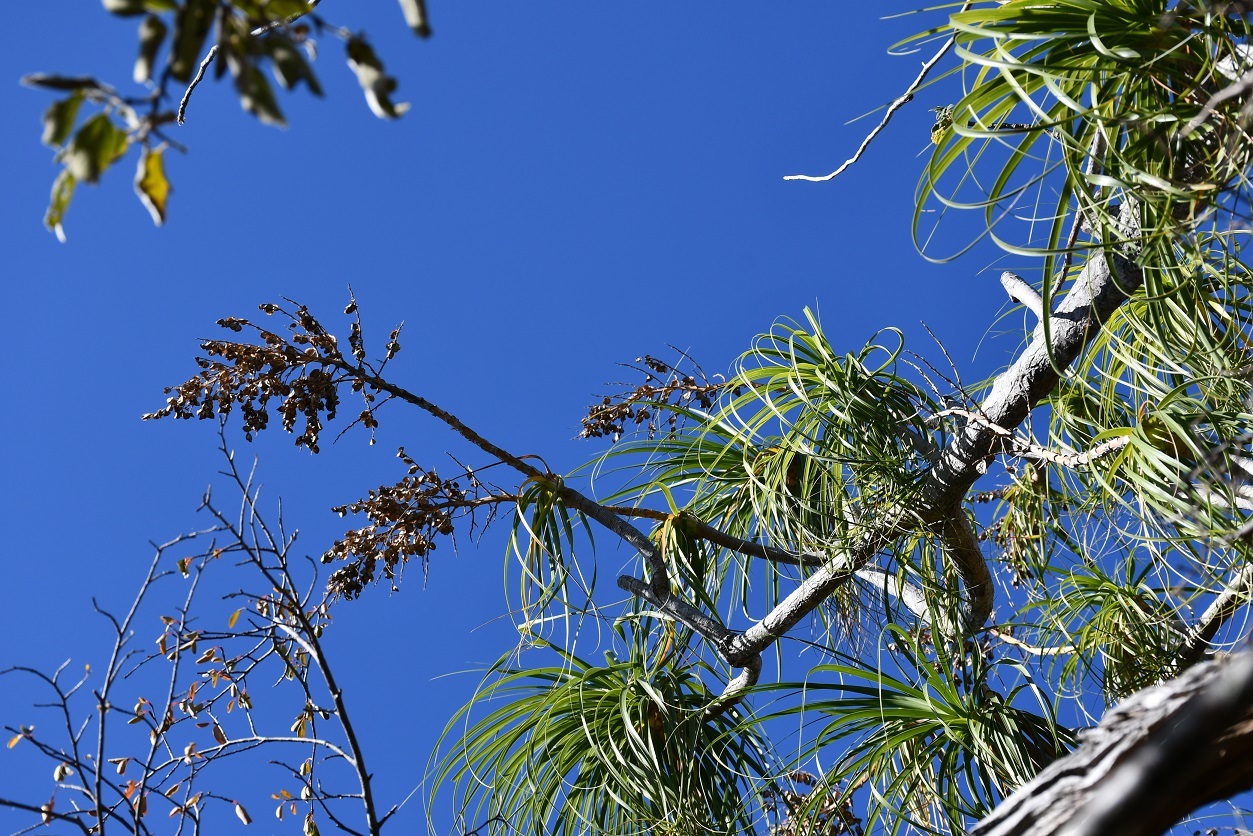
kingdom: Plantae
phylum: Tracheophyta
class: Liliopsida
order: Asparagales
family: Asparagaceae
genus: Beaucarnea
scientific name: Beaucarnea goldmanii
